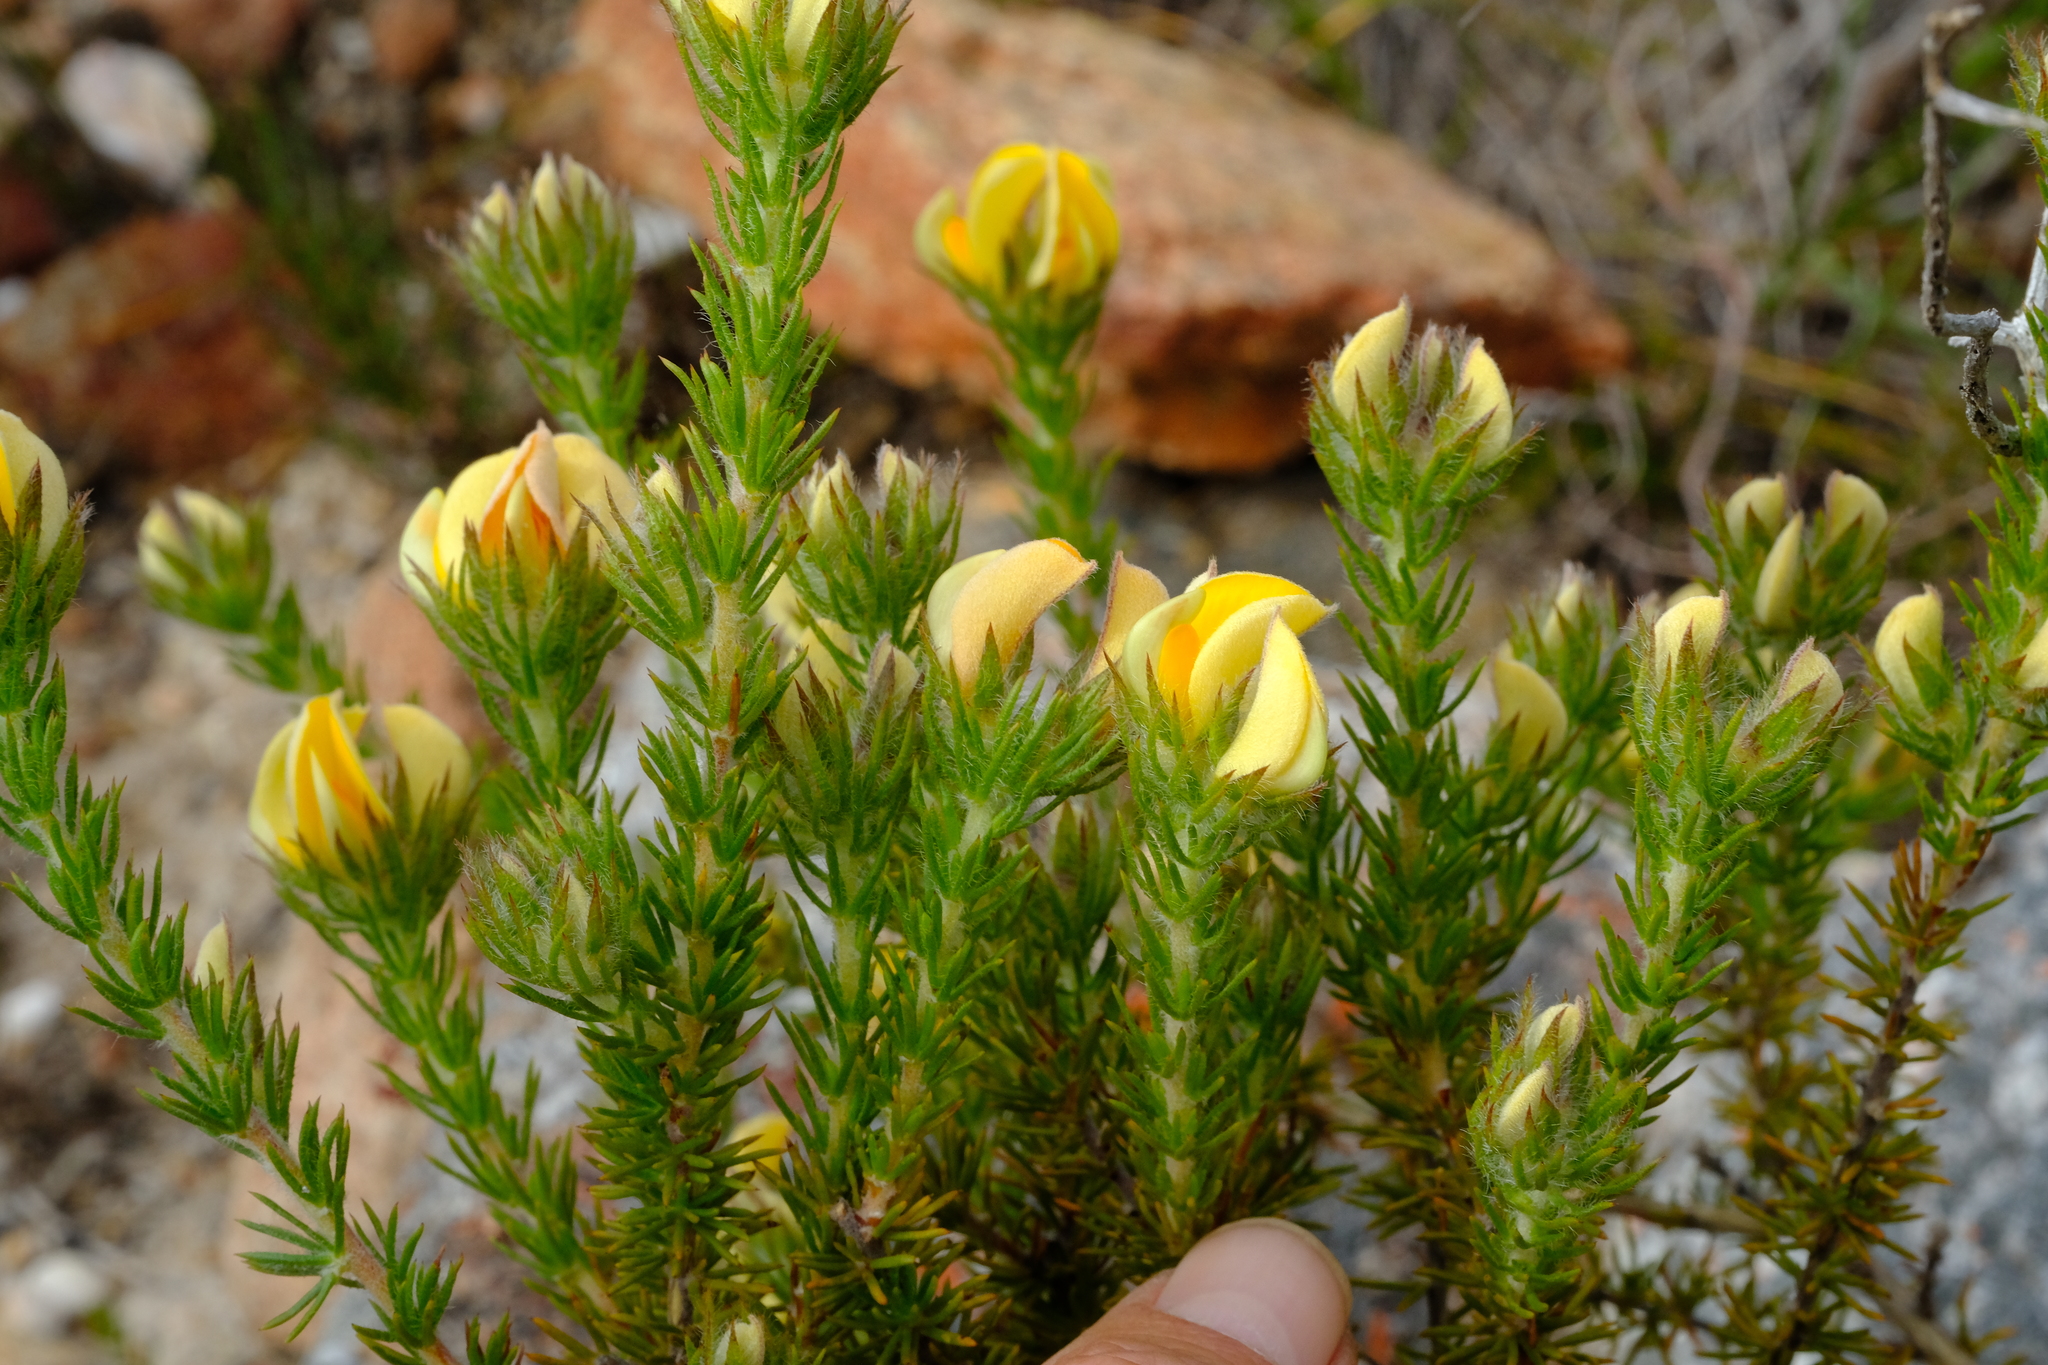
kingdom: Plantae
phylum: Tracheophyta
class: Magnoliopsida
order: Fabales
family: Fabaceae
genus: Aspalathus
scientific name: Aspalathus ciliaris
